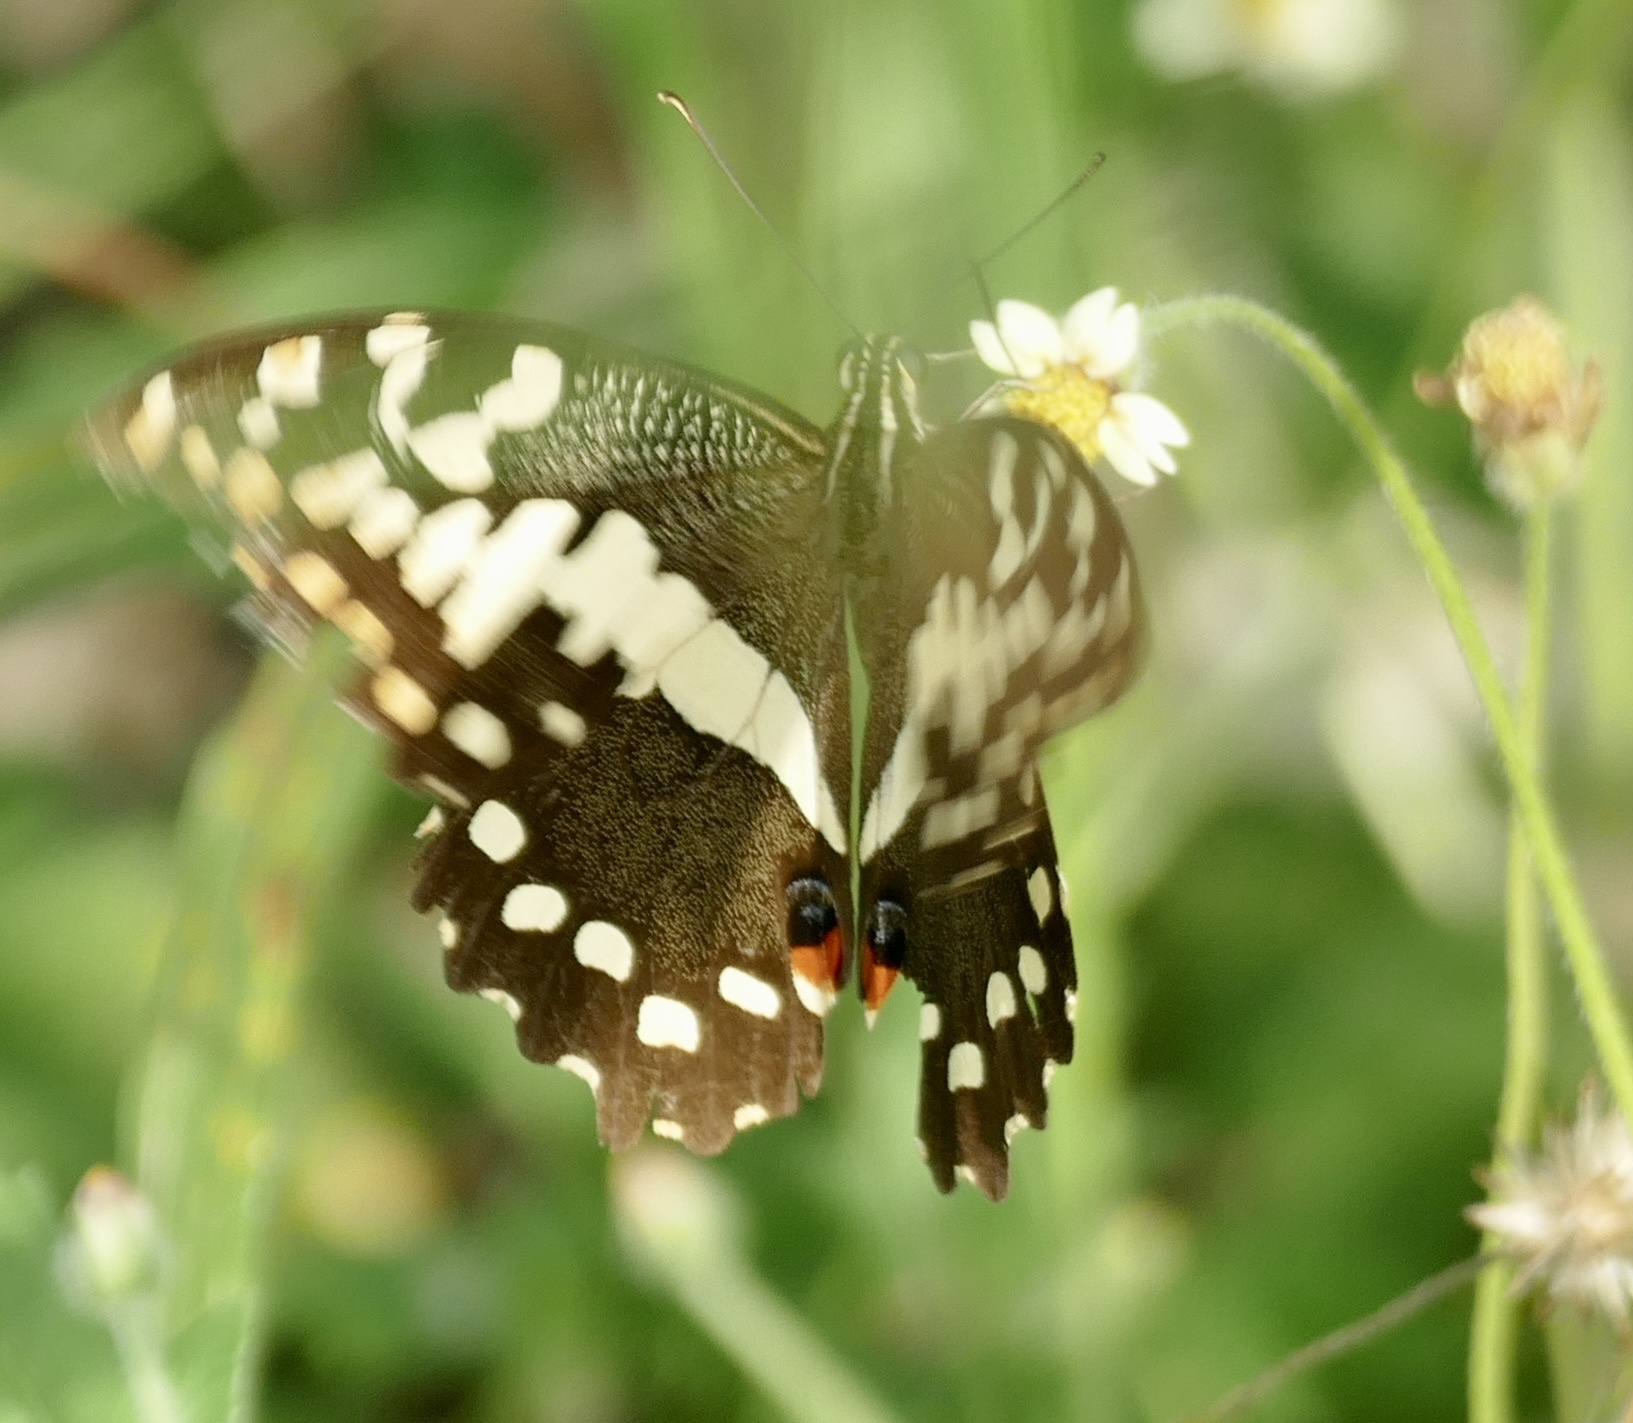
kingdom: Animalia
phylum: Arthropoda
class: Insecta
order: Lepidoptera
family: Papilionidae
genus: Papilio
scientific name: Papilio demodocus
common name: Christmas butterfly
